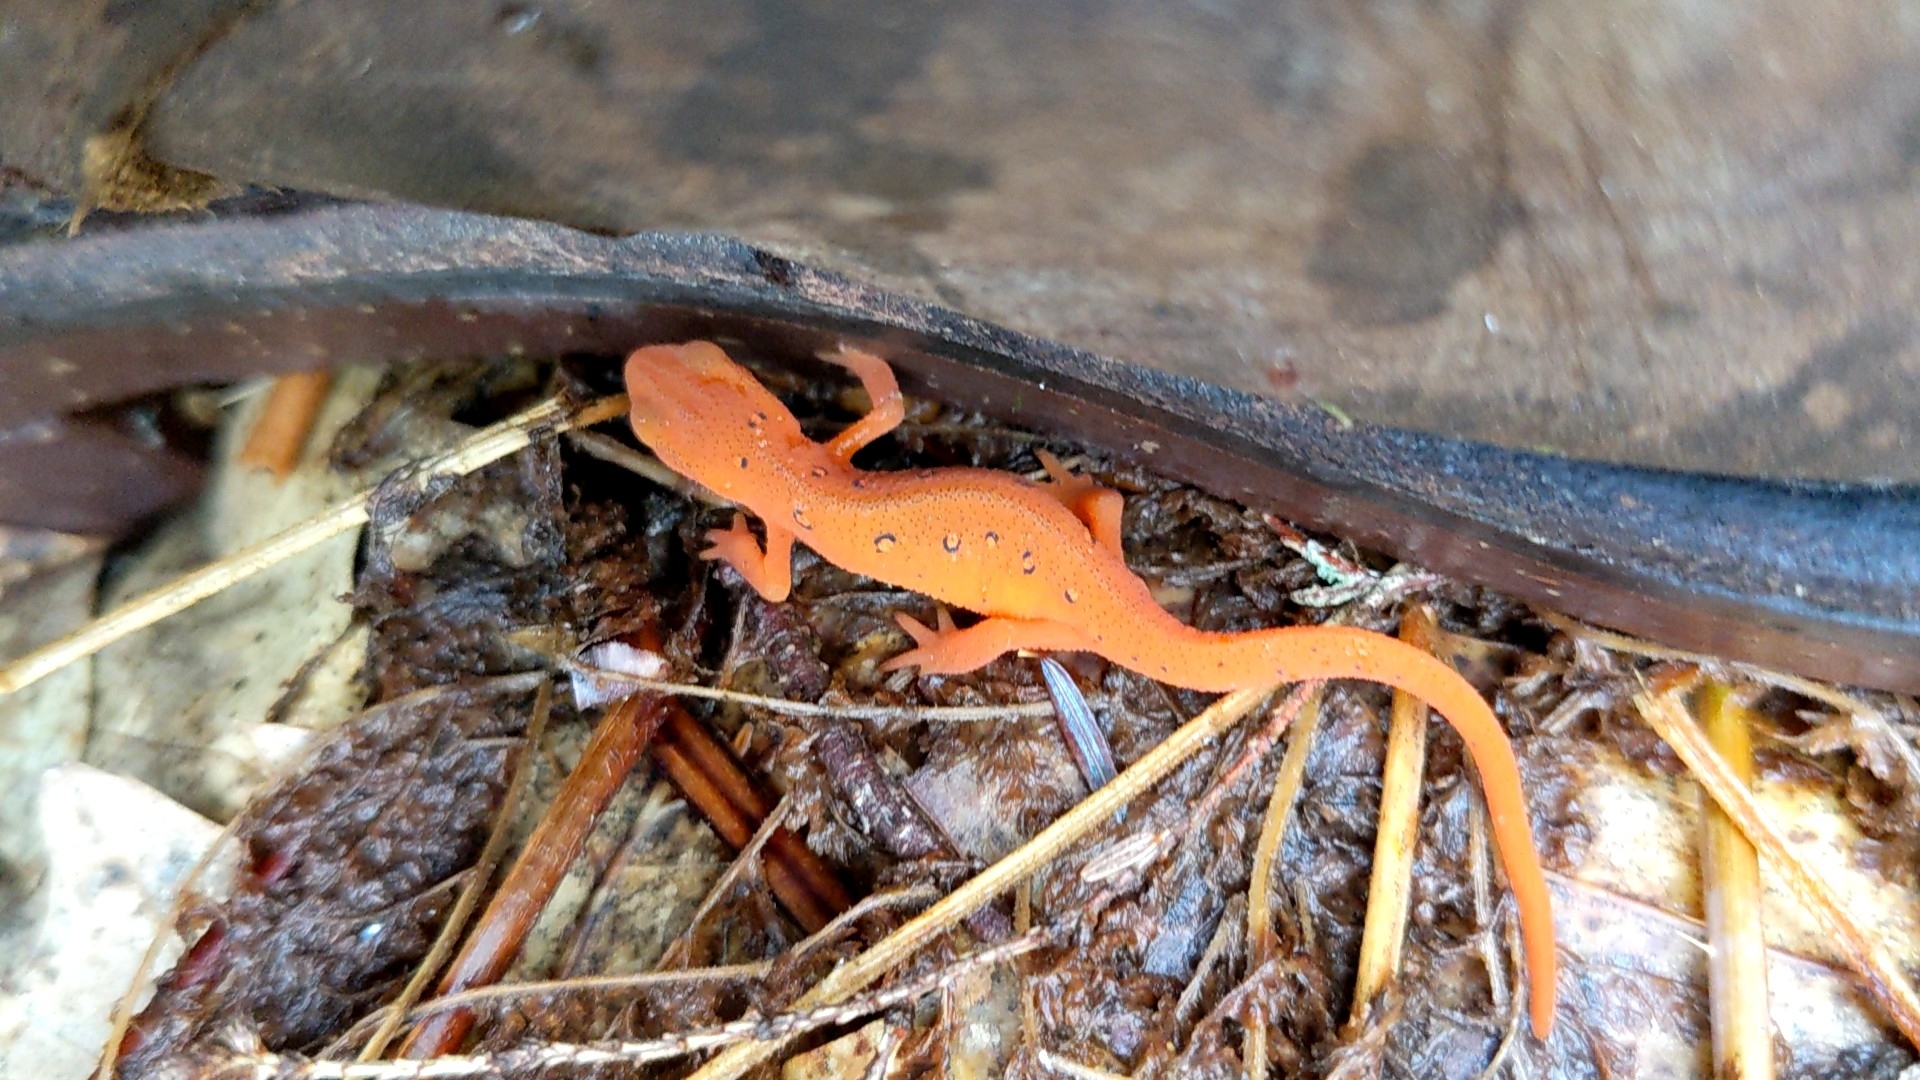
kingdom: Animalia
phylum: Chordata
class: Amphibia
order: Caudata
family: Salamandridae
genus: Notophthalmus
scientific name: Notophthalmus viridescens
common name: Eastern newt
